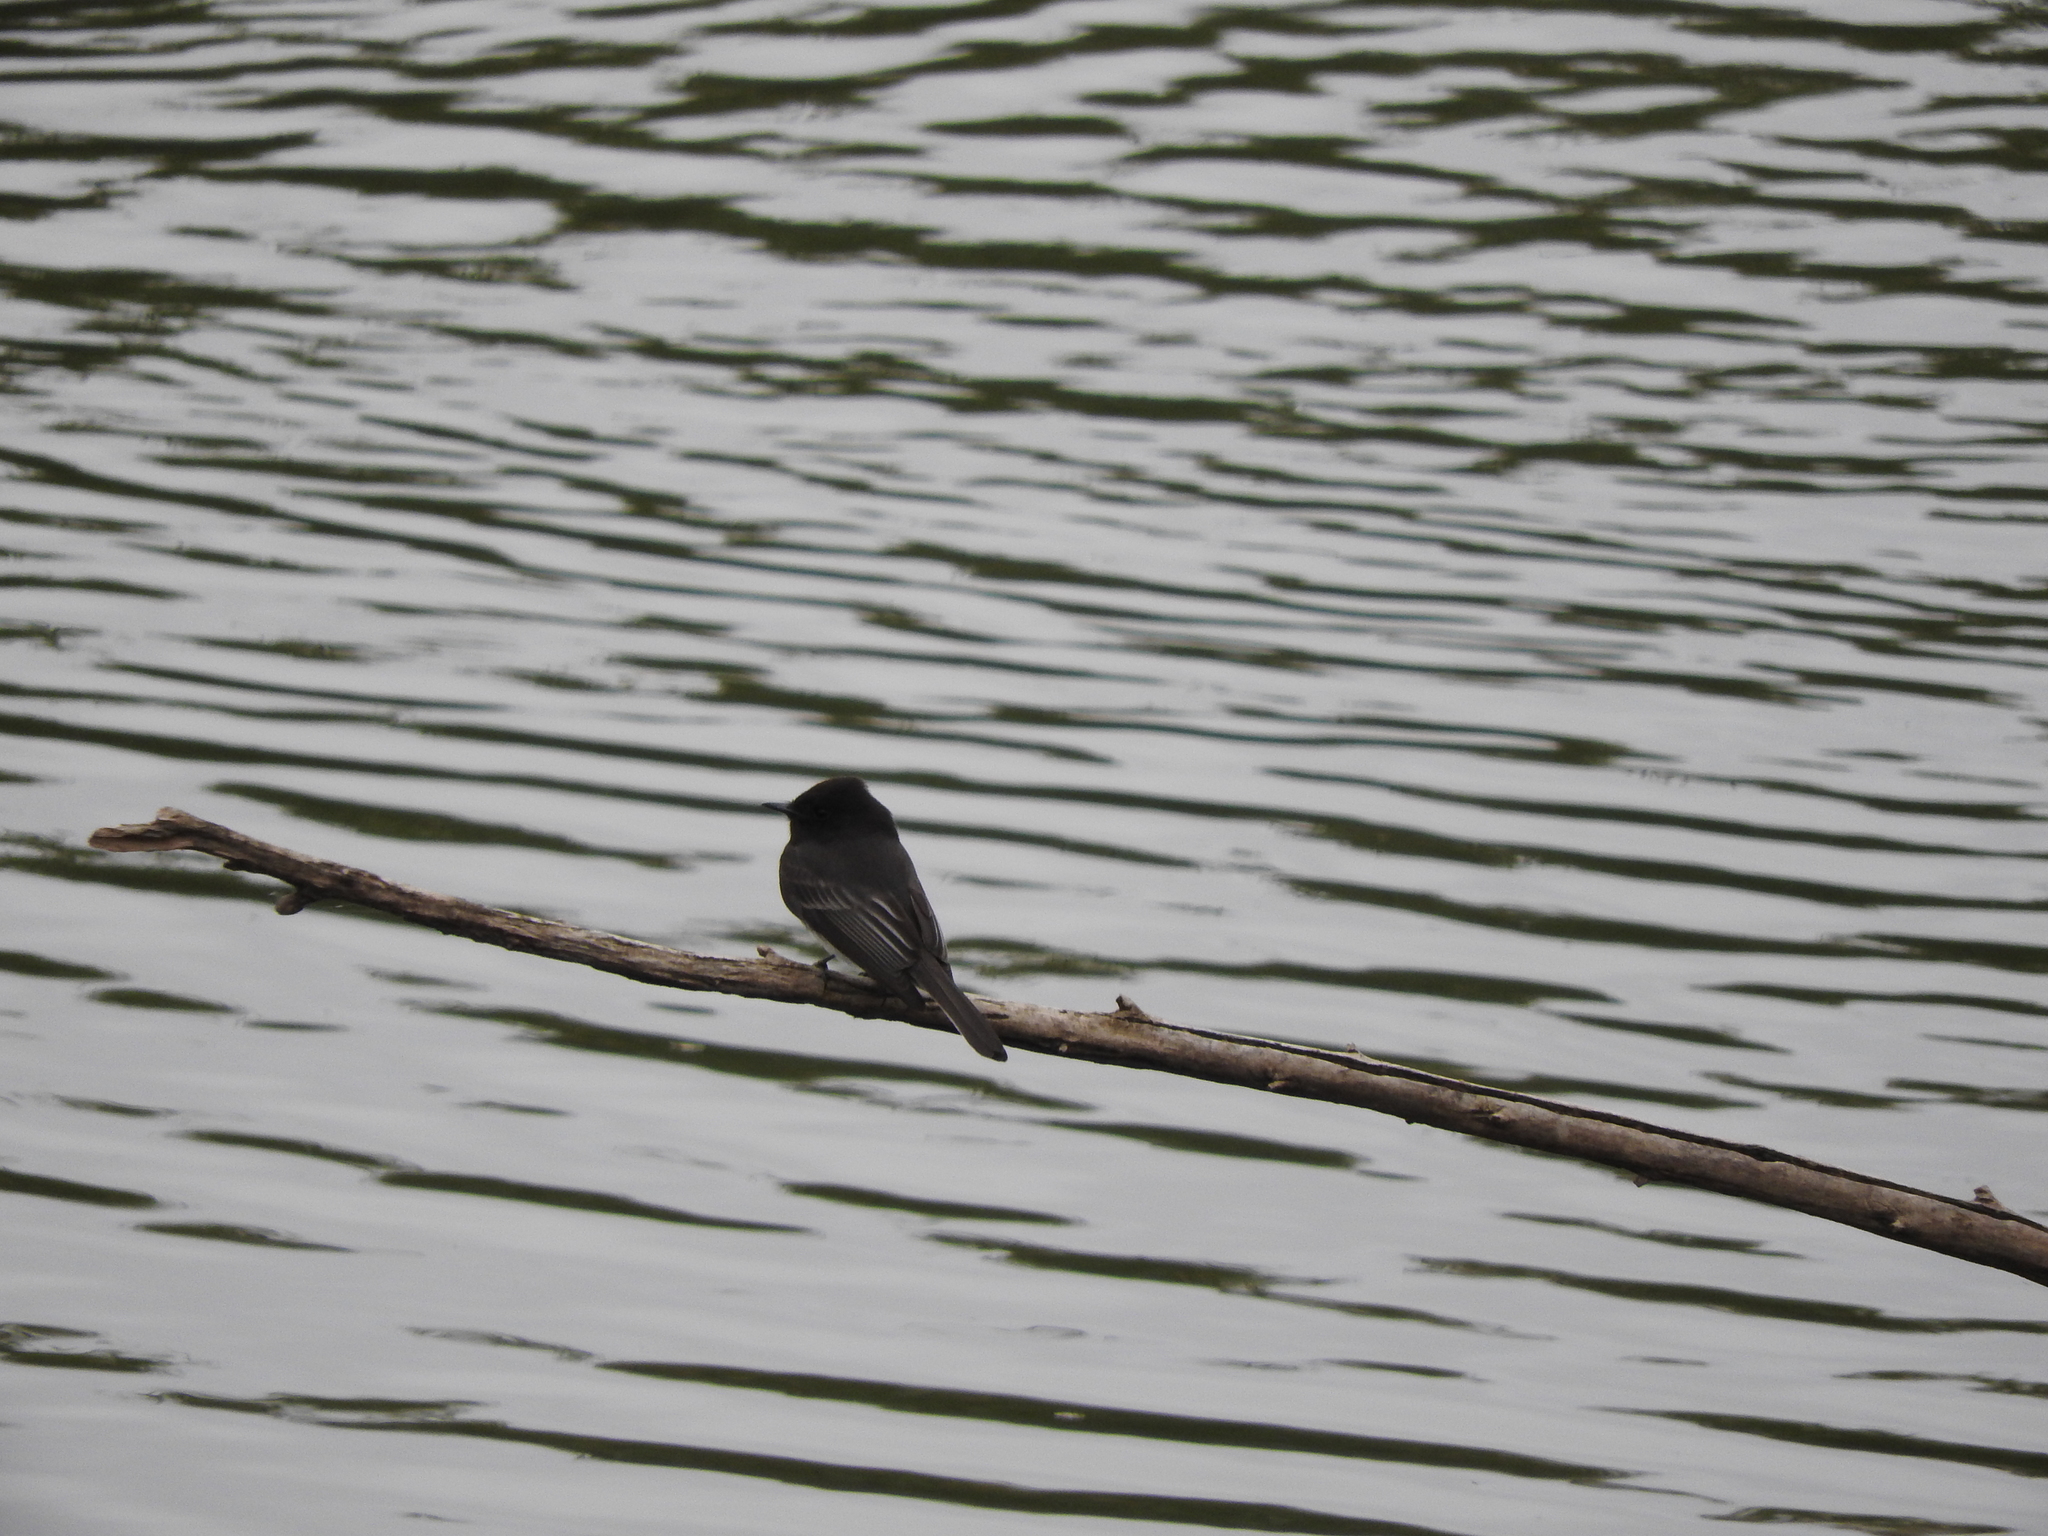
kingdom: Animalia
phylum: Chordata
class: Aves
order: Passeriformes
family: Tyrannidae
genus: Sayornis
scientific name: Sayornis nigricans
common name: Black phoebe
